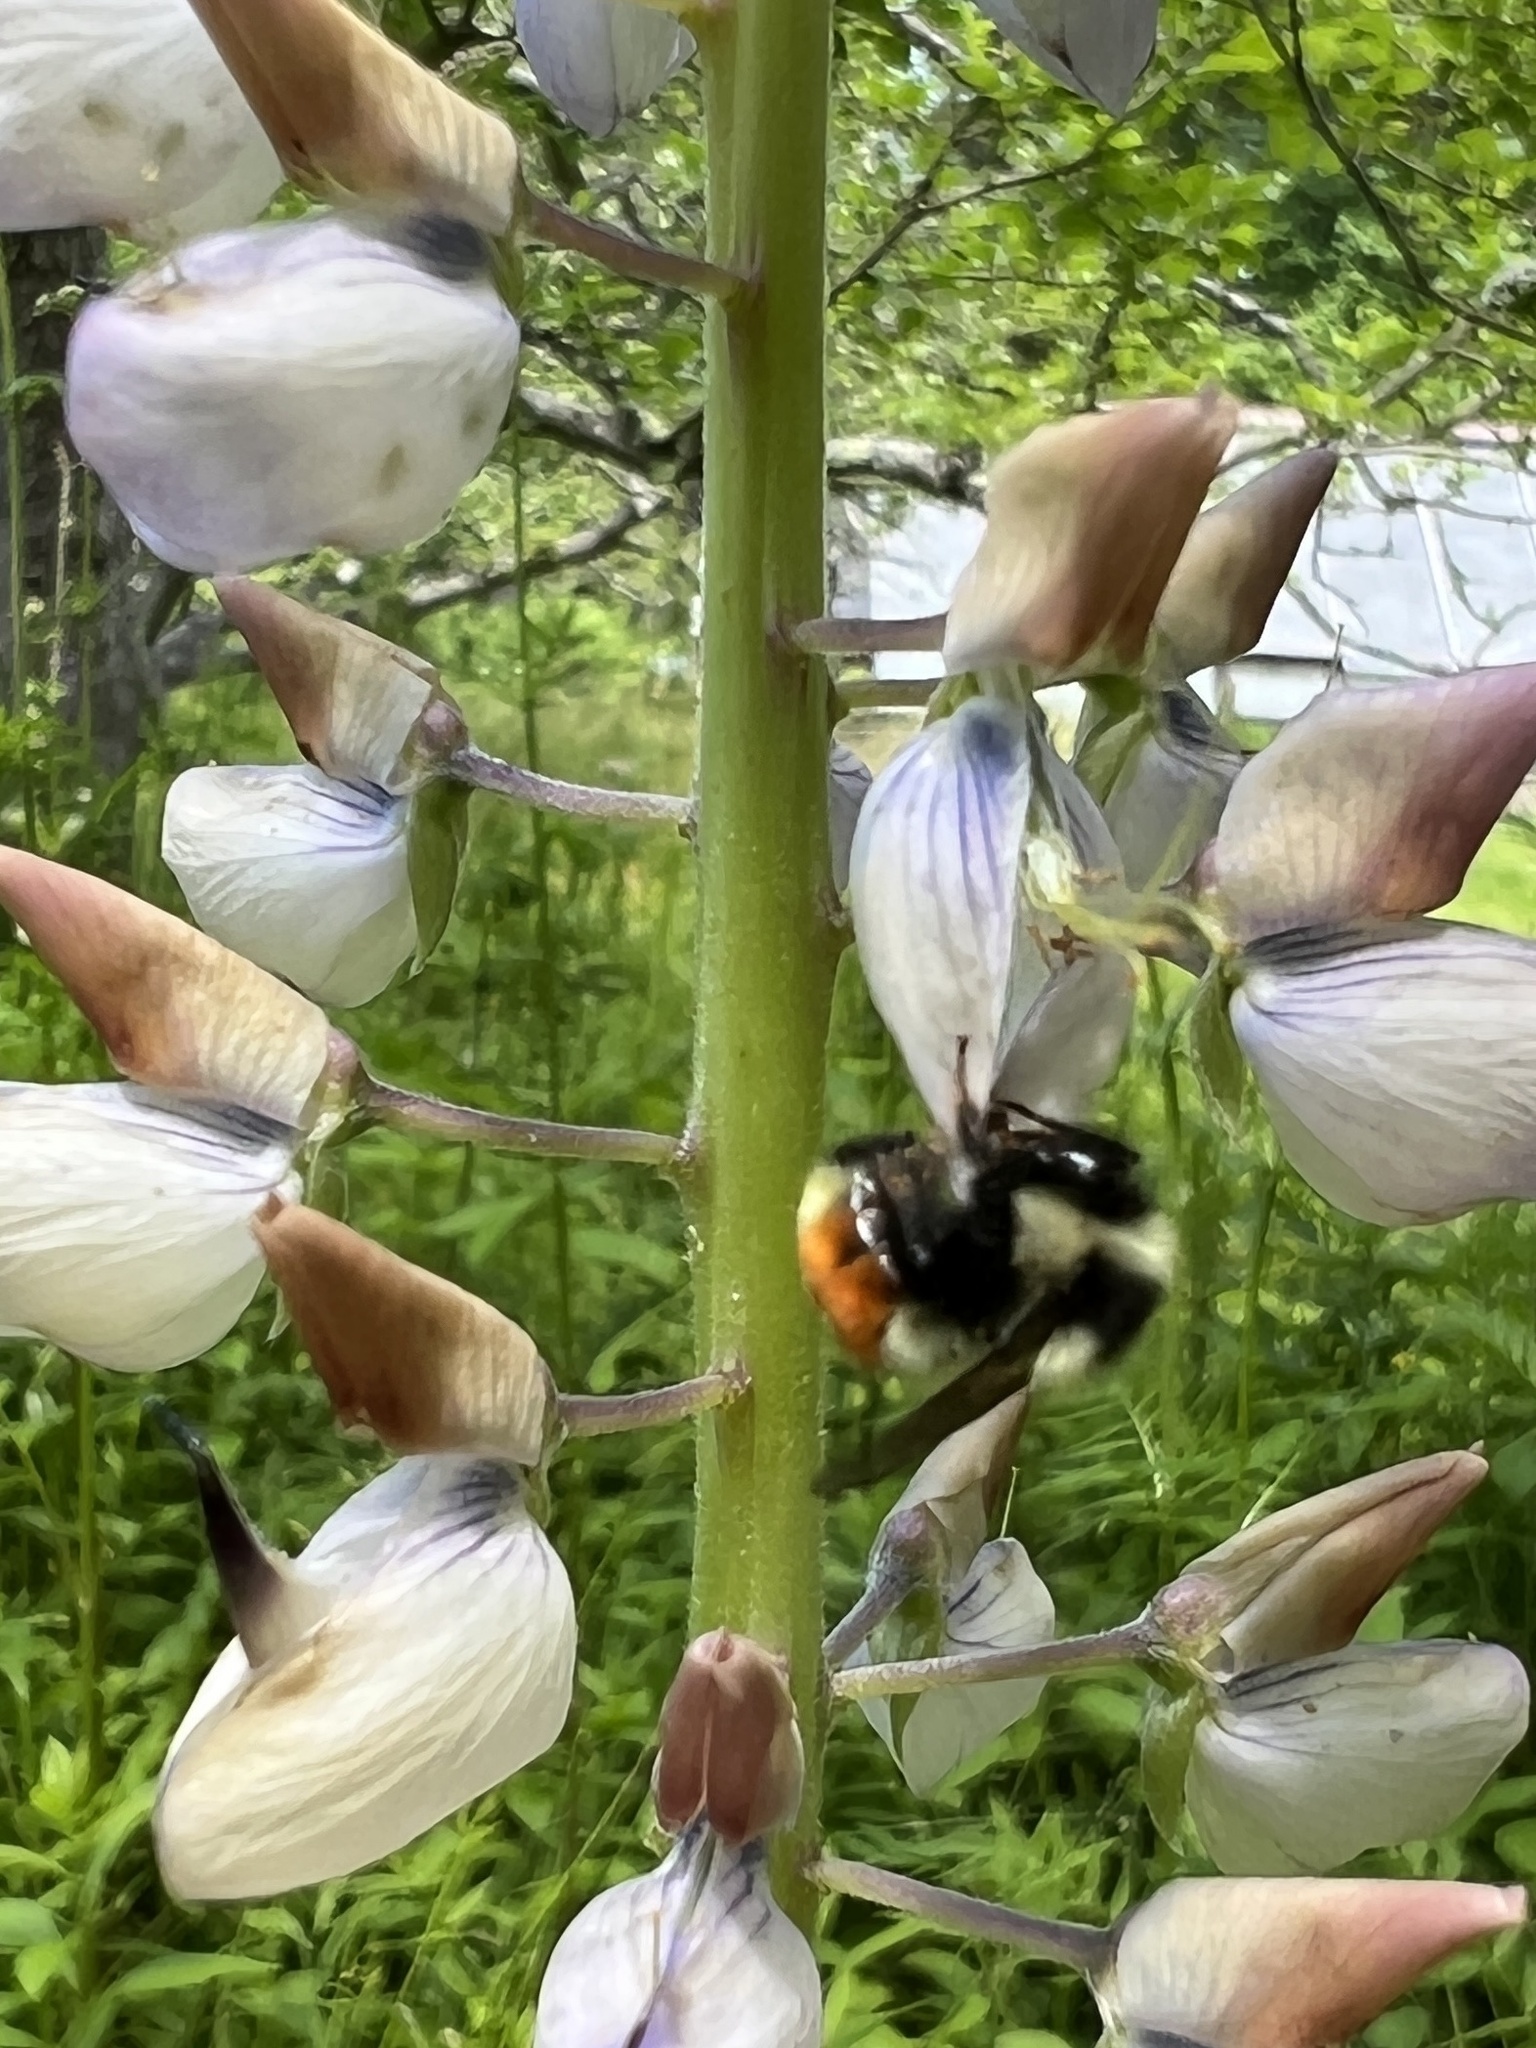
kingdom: Animalia
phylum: Arthropoda
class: Insecta
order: Hymenoptera
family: Apidae
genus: Bombus
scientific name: Bombus ternarius
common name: Tri-colored bumble bee
